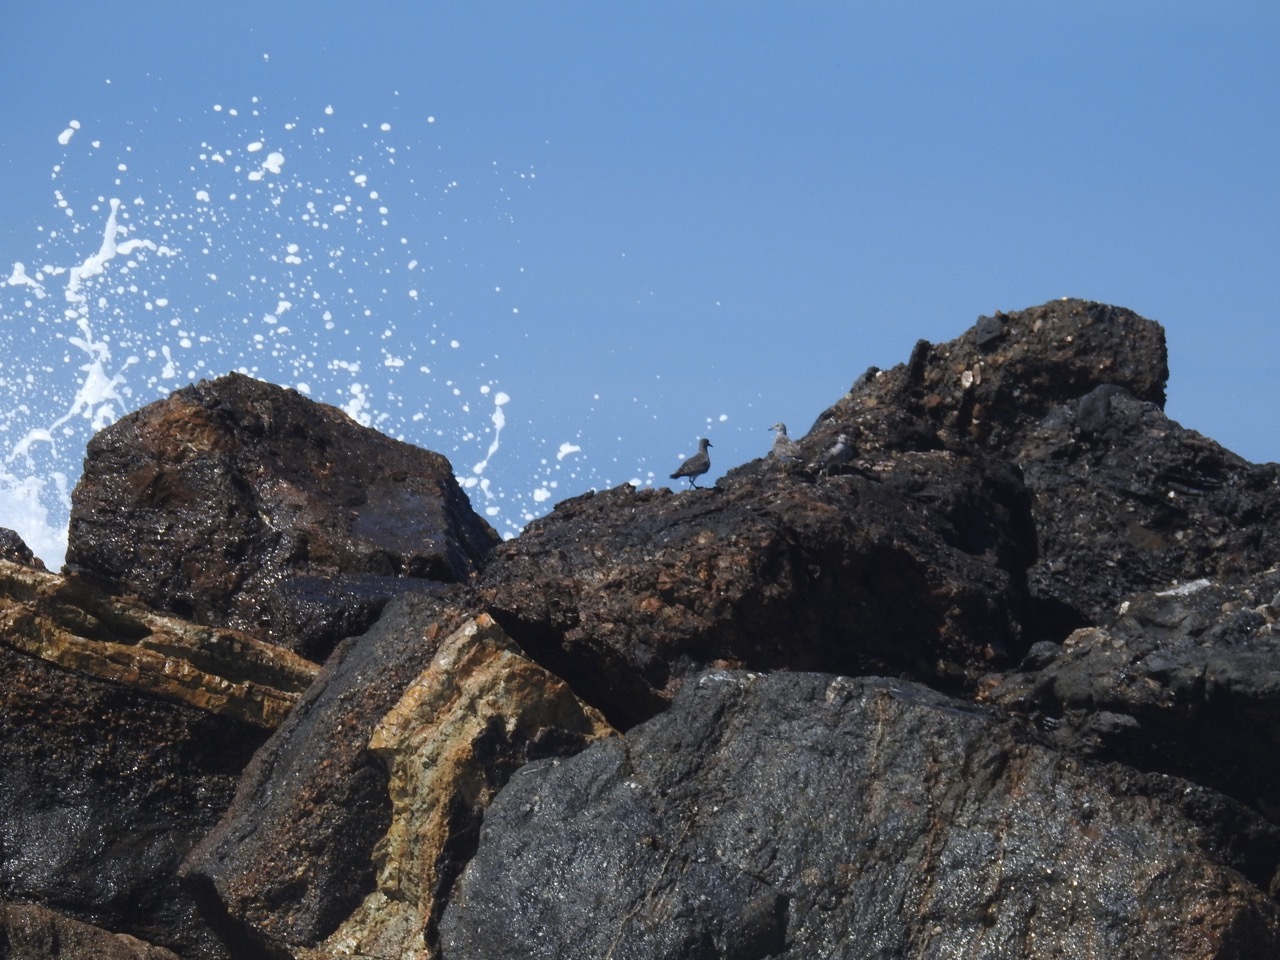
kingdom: Animalia
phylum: Chordata
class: Aves
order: Charadriiformes
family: Scolopacidae
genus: Calidris
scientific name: Calidris virgata
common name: Surfbird
